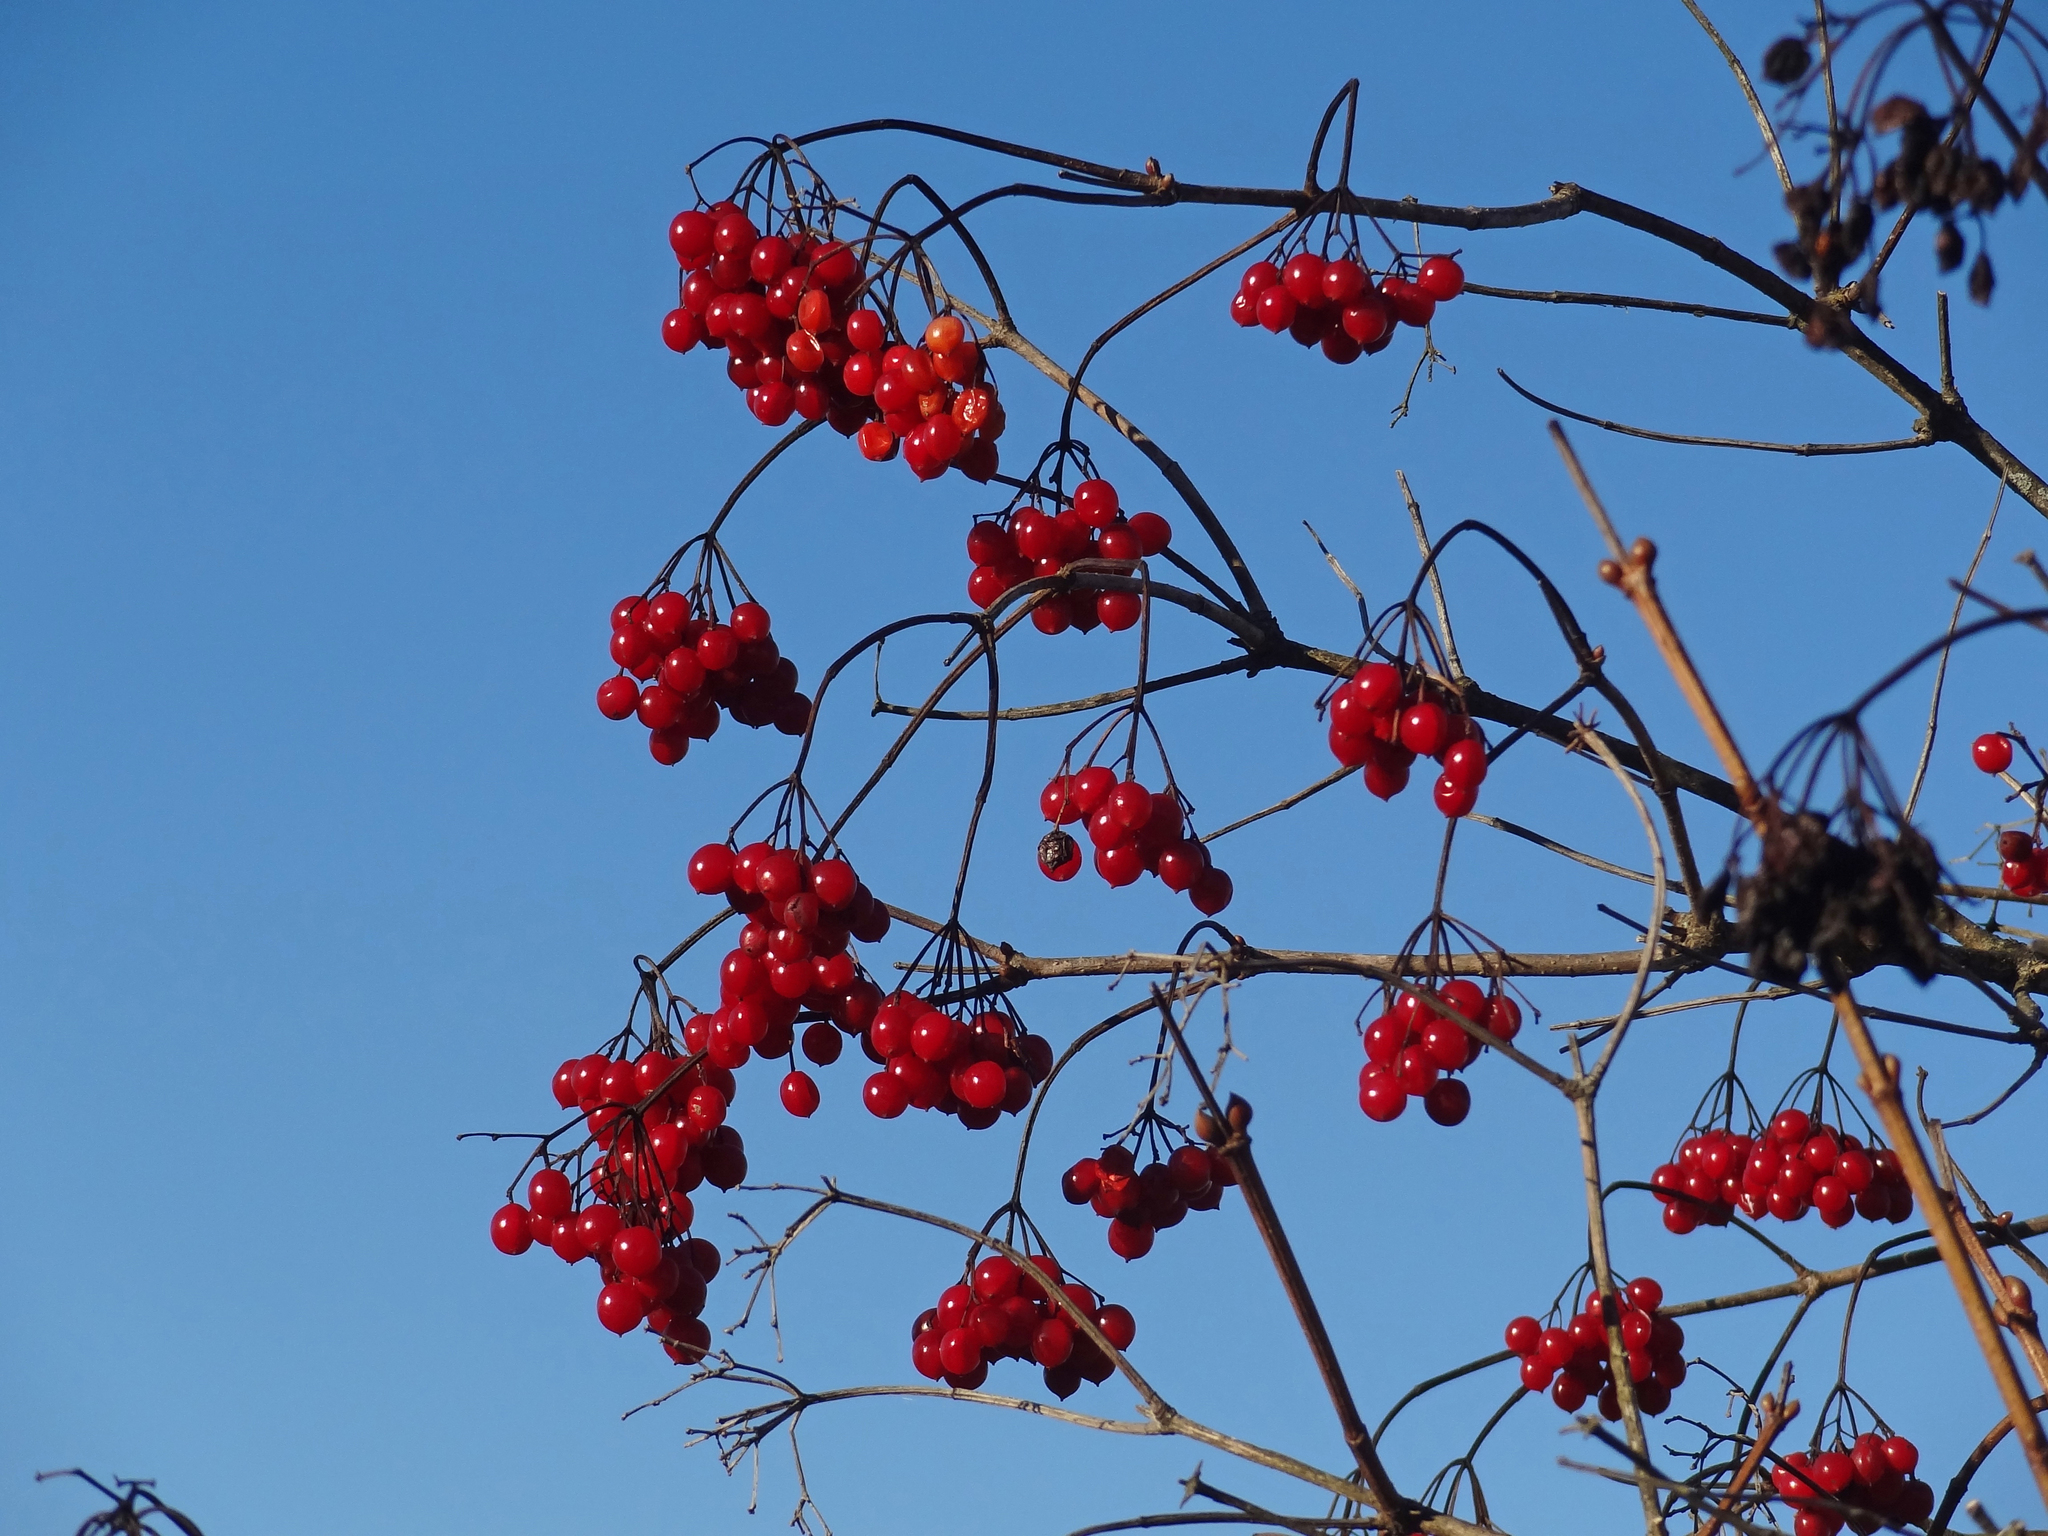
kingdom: Plantae
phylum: Tracheophyta
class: Magnoliopsida
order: Dipsacales
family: Viburnaceae
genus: Viburnum
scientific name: Viburnum opulus
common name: Guelder-rose
